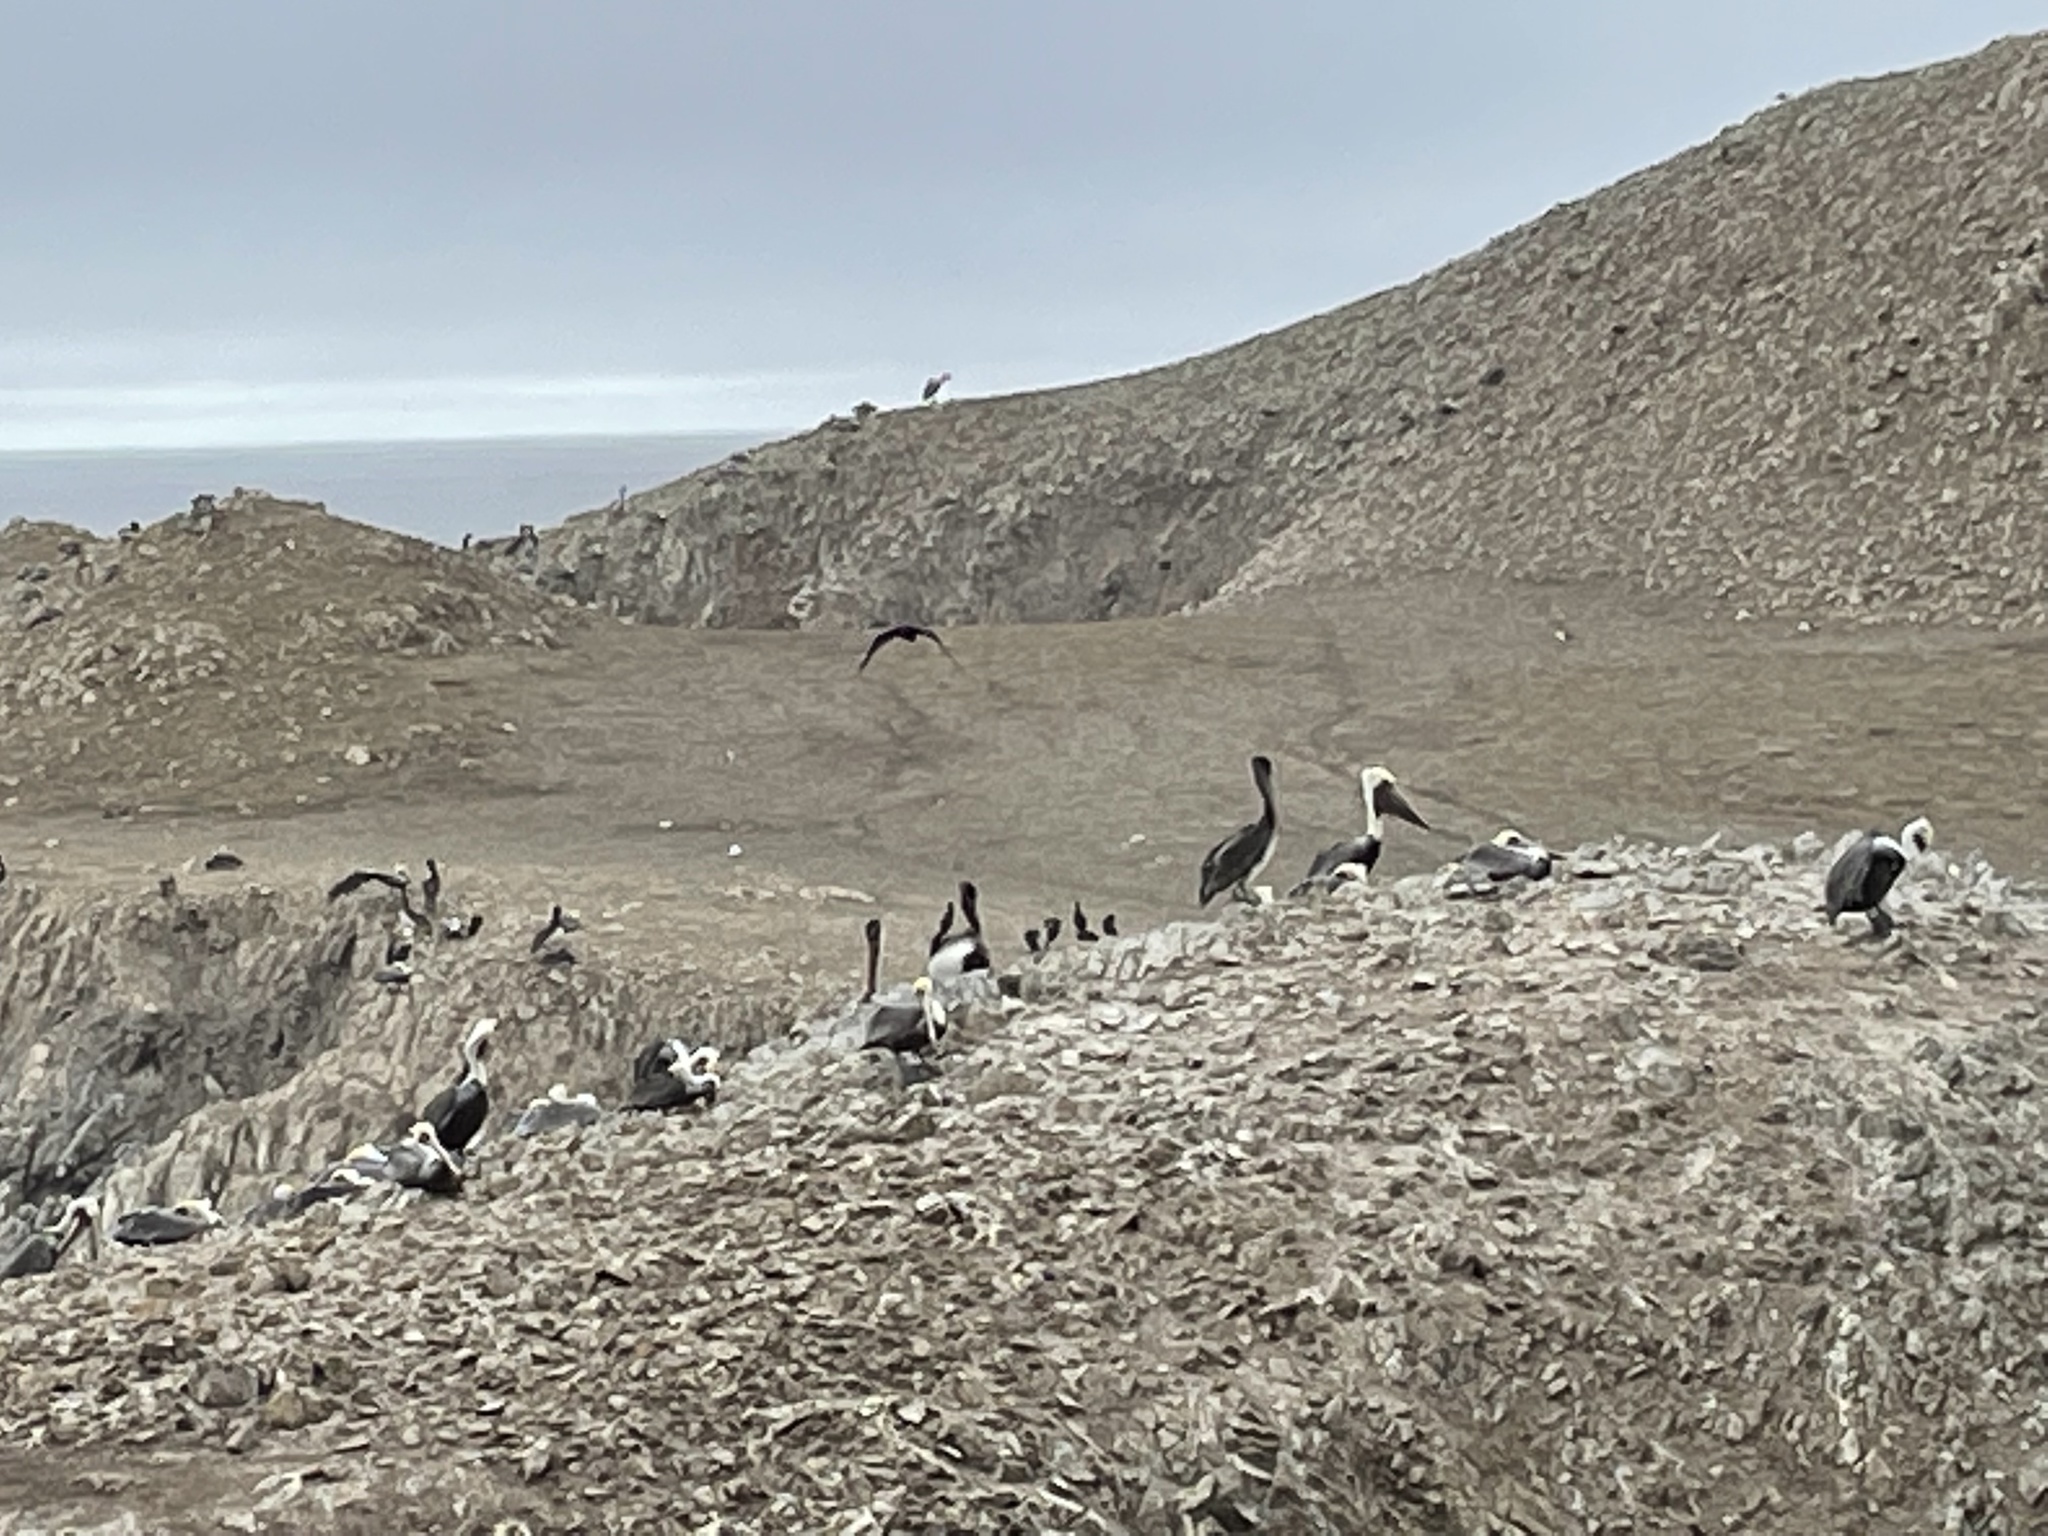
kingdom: Animalia
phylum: Chordata
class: Aves
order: Pelecaniformes
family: Pelecanidae
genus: Pelecanus
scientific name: Pelecanus occidentalis
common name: Brown pelican
